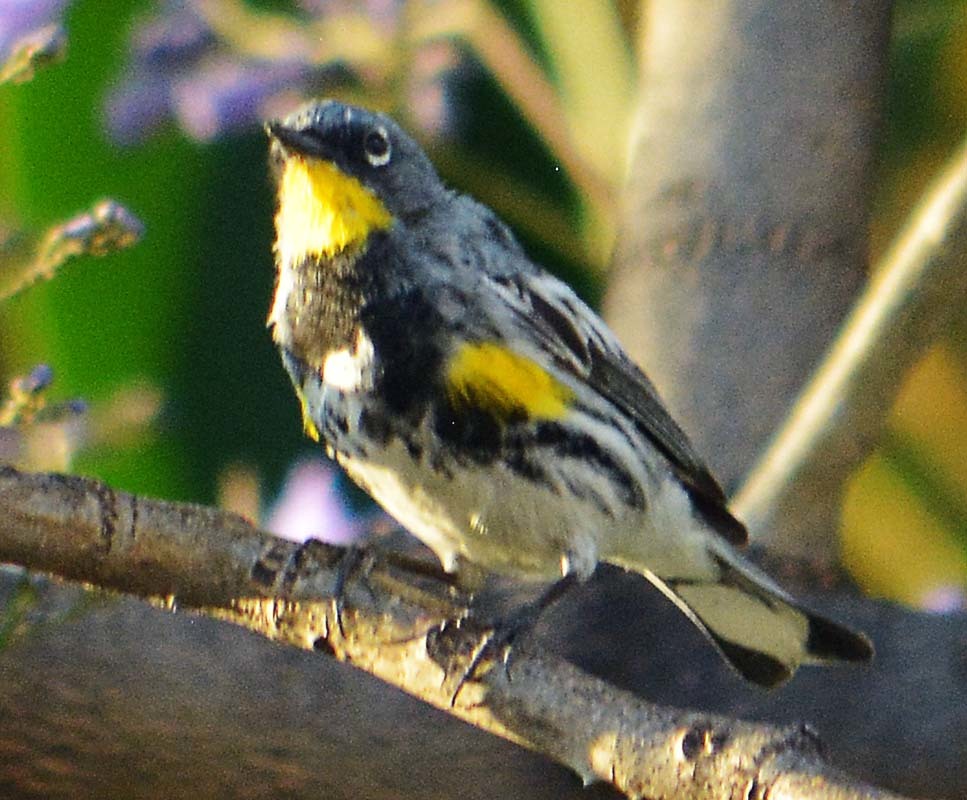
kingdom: Animalia
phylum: Chordata
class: Aves
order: Passeriformes
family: Parulidae
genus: Setophaga
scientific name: Setophaga auduboni
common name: Audubon's warbler
